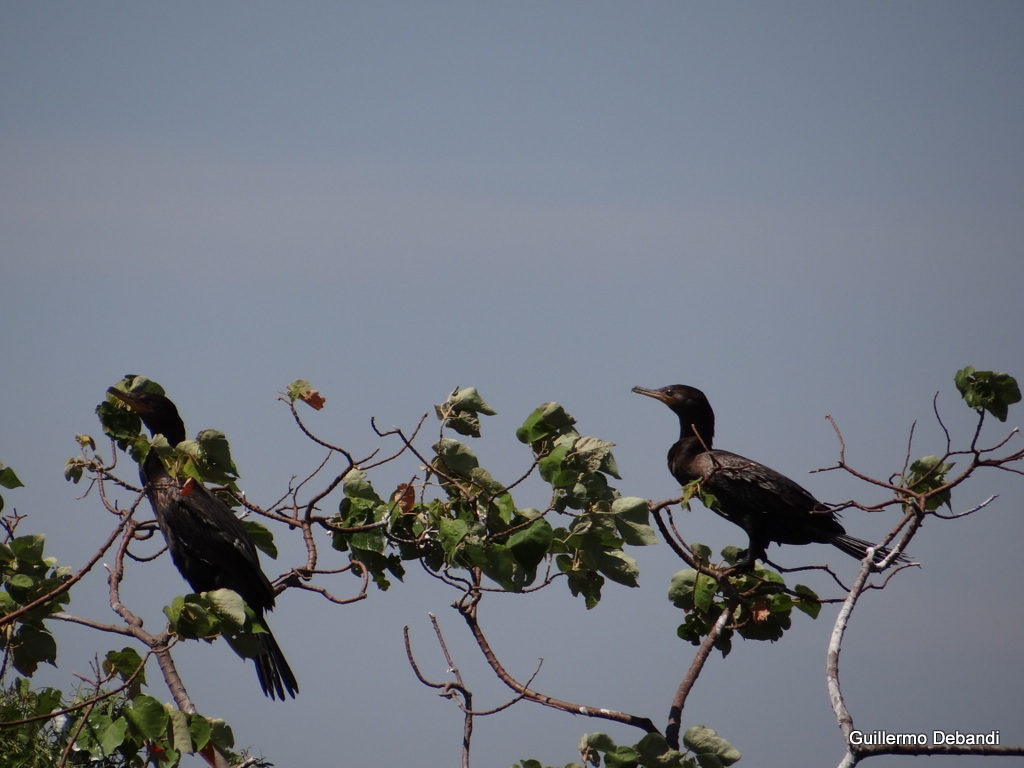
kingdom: Animalia
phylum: Chordata
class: Aves
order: Suliformes
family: Phalacrocoracidae
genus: Phalacrocorax
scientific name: Phalacrocorax brasilianus
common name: Neotropic cormorant
